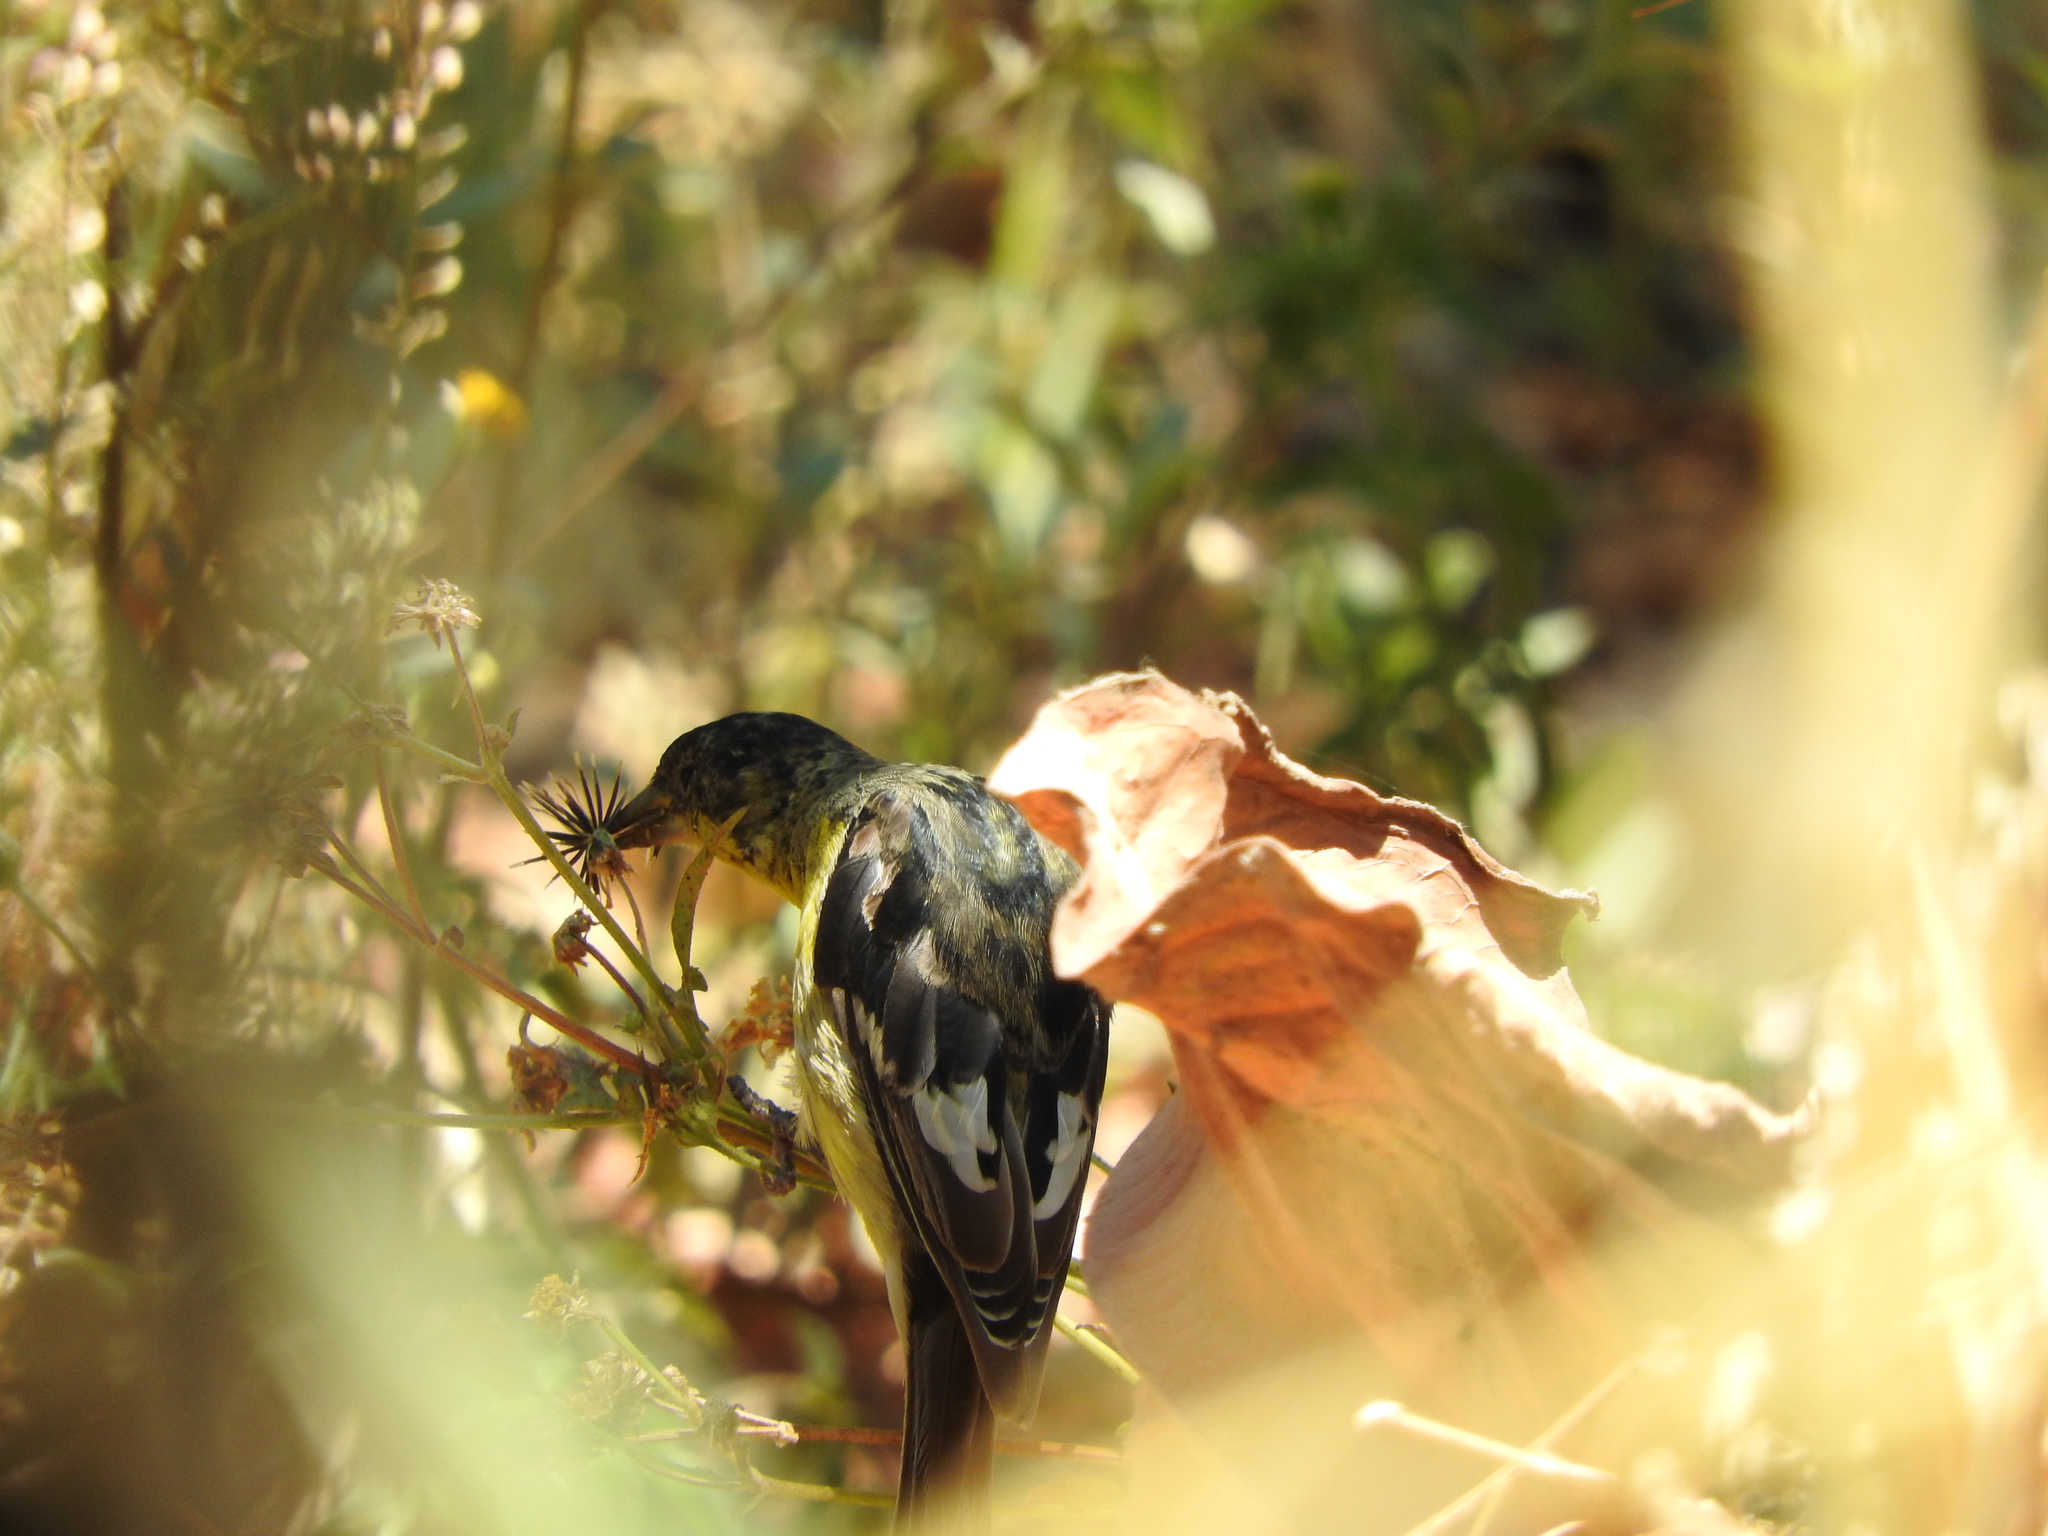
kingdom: Animalia
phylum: Chordata
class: Aves
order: Passeriformes
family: Fringillidae
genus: Spinus
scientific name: Spinus psaltria
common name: Lesser goldfinch
